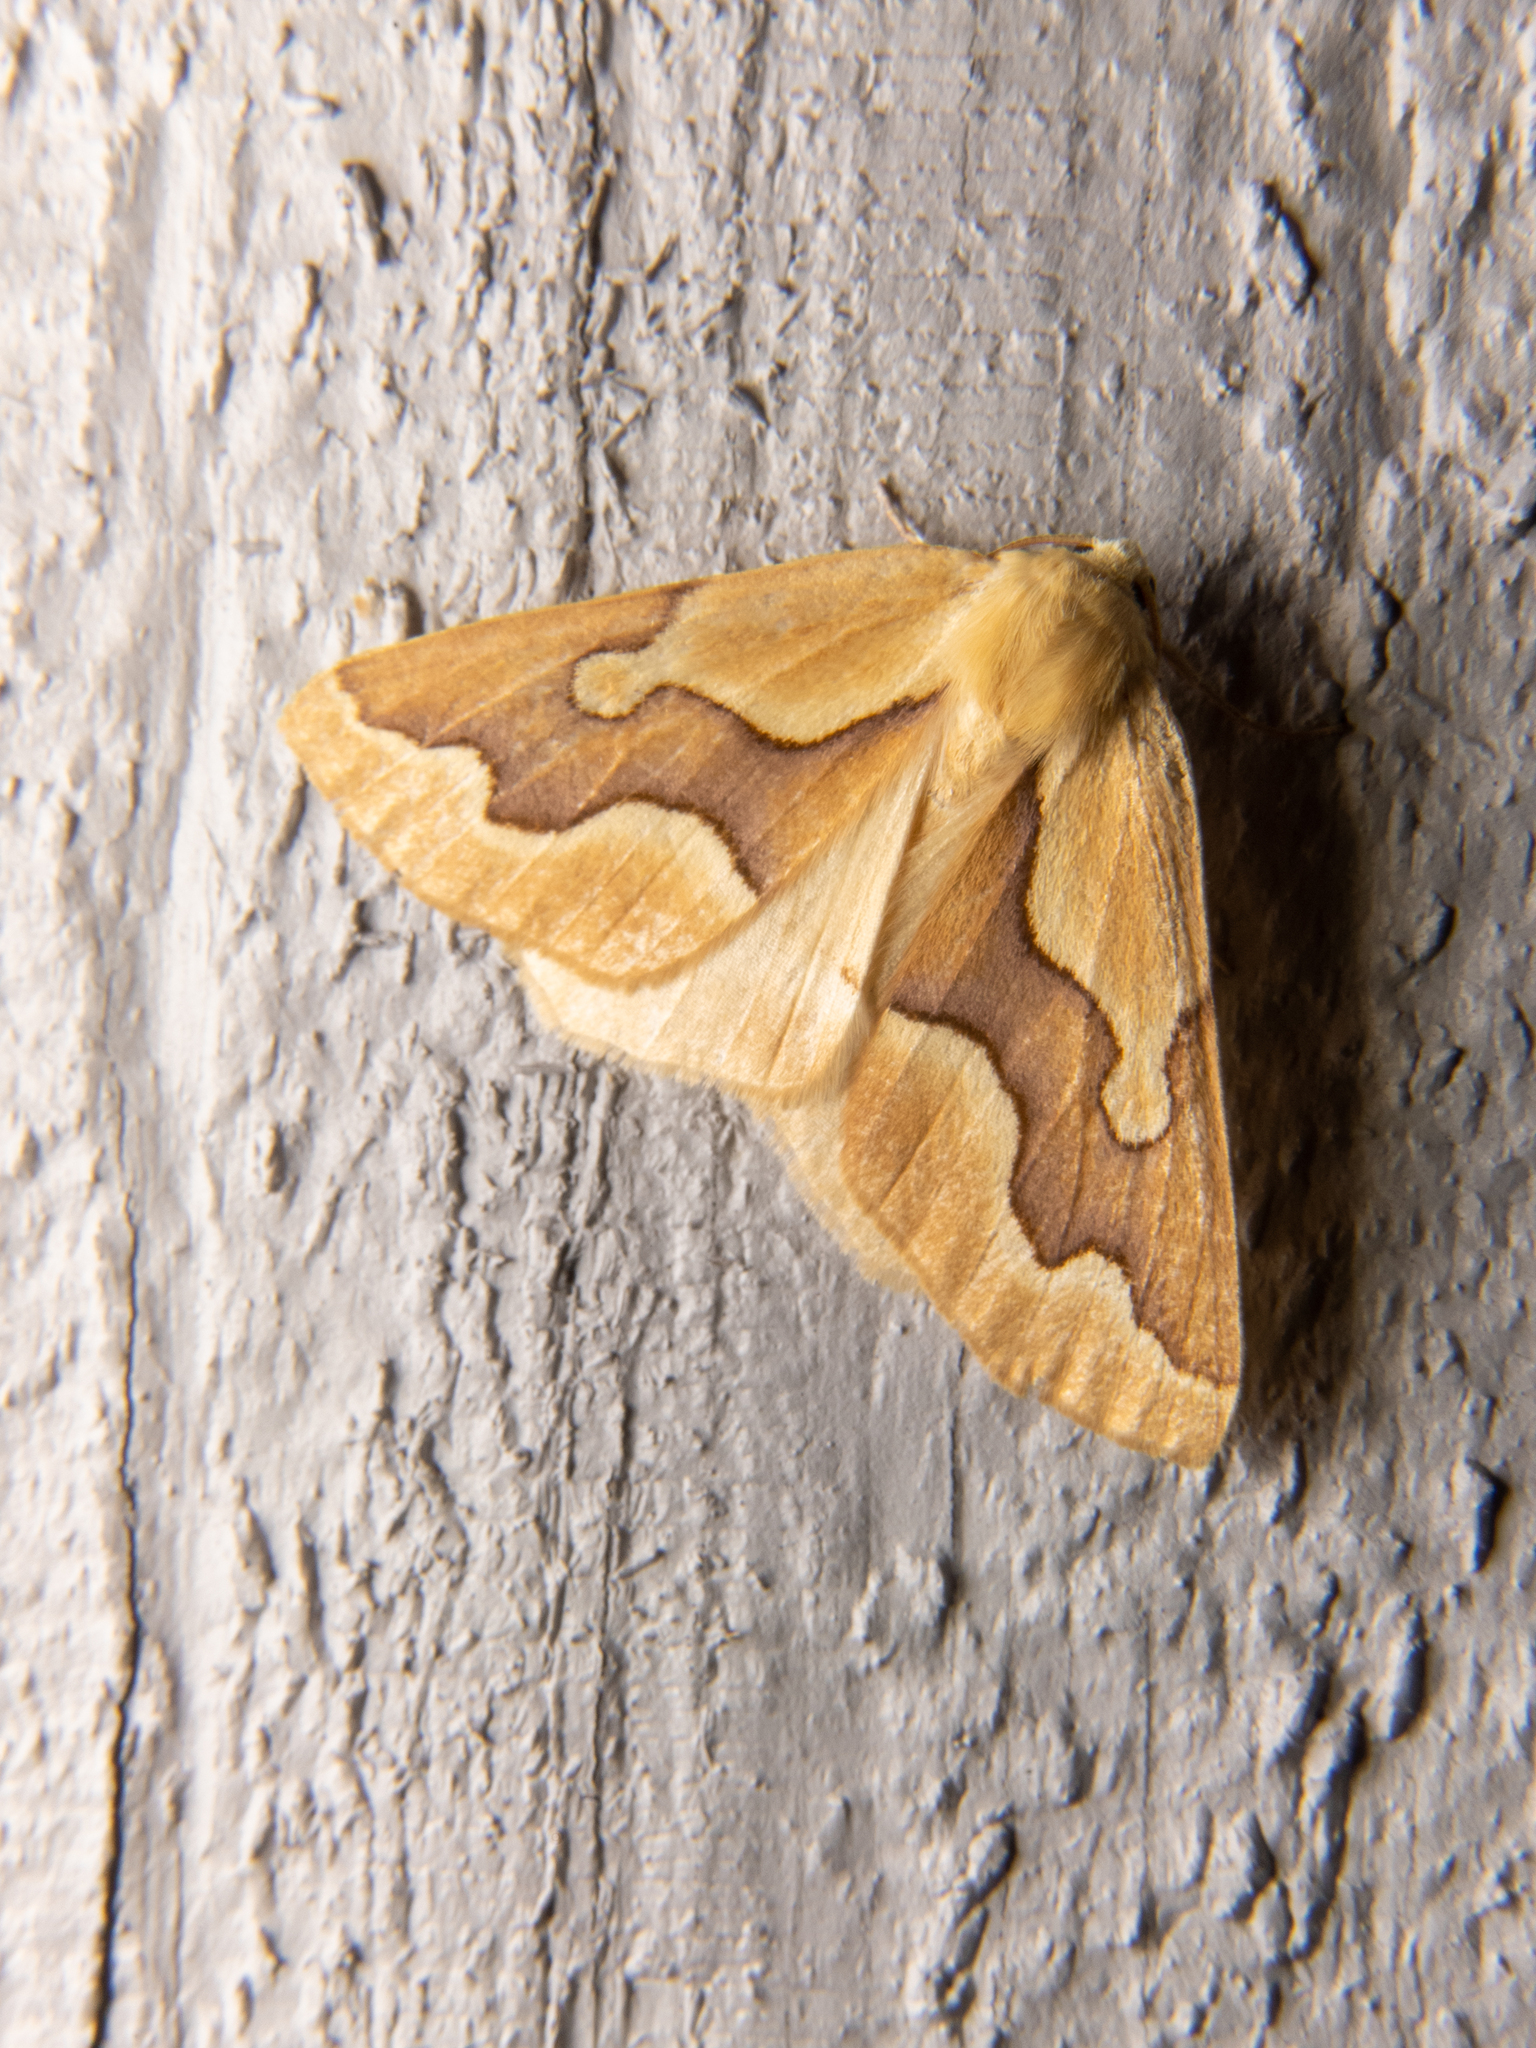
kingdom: Animalia
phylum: Arthropoda
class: Insecta
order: Lepidoptera
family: Geometridae
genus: Sabulodes
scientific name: Sabulodes edwardsata
